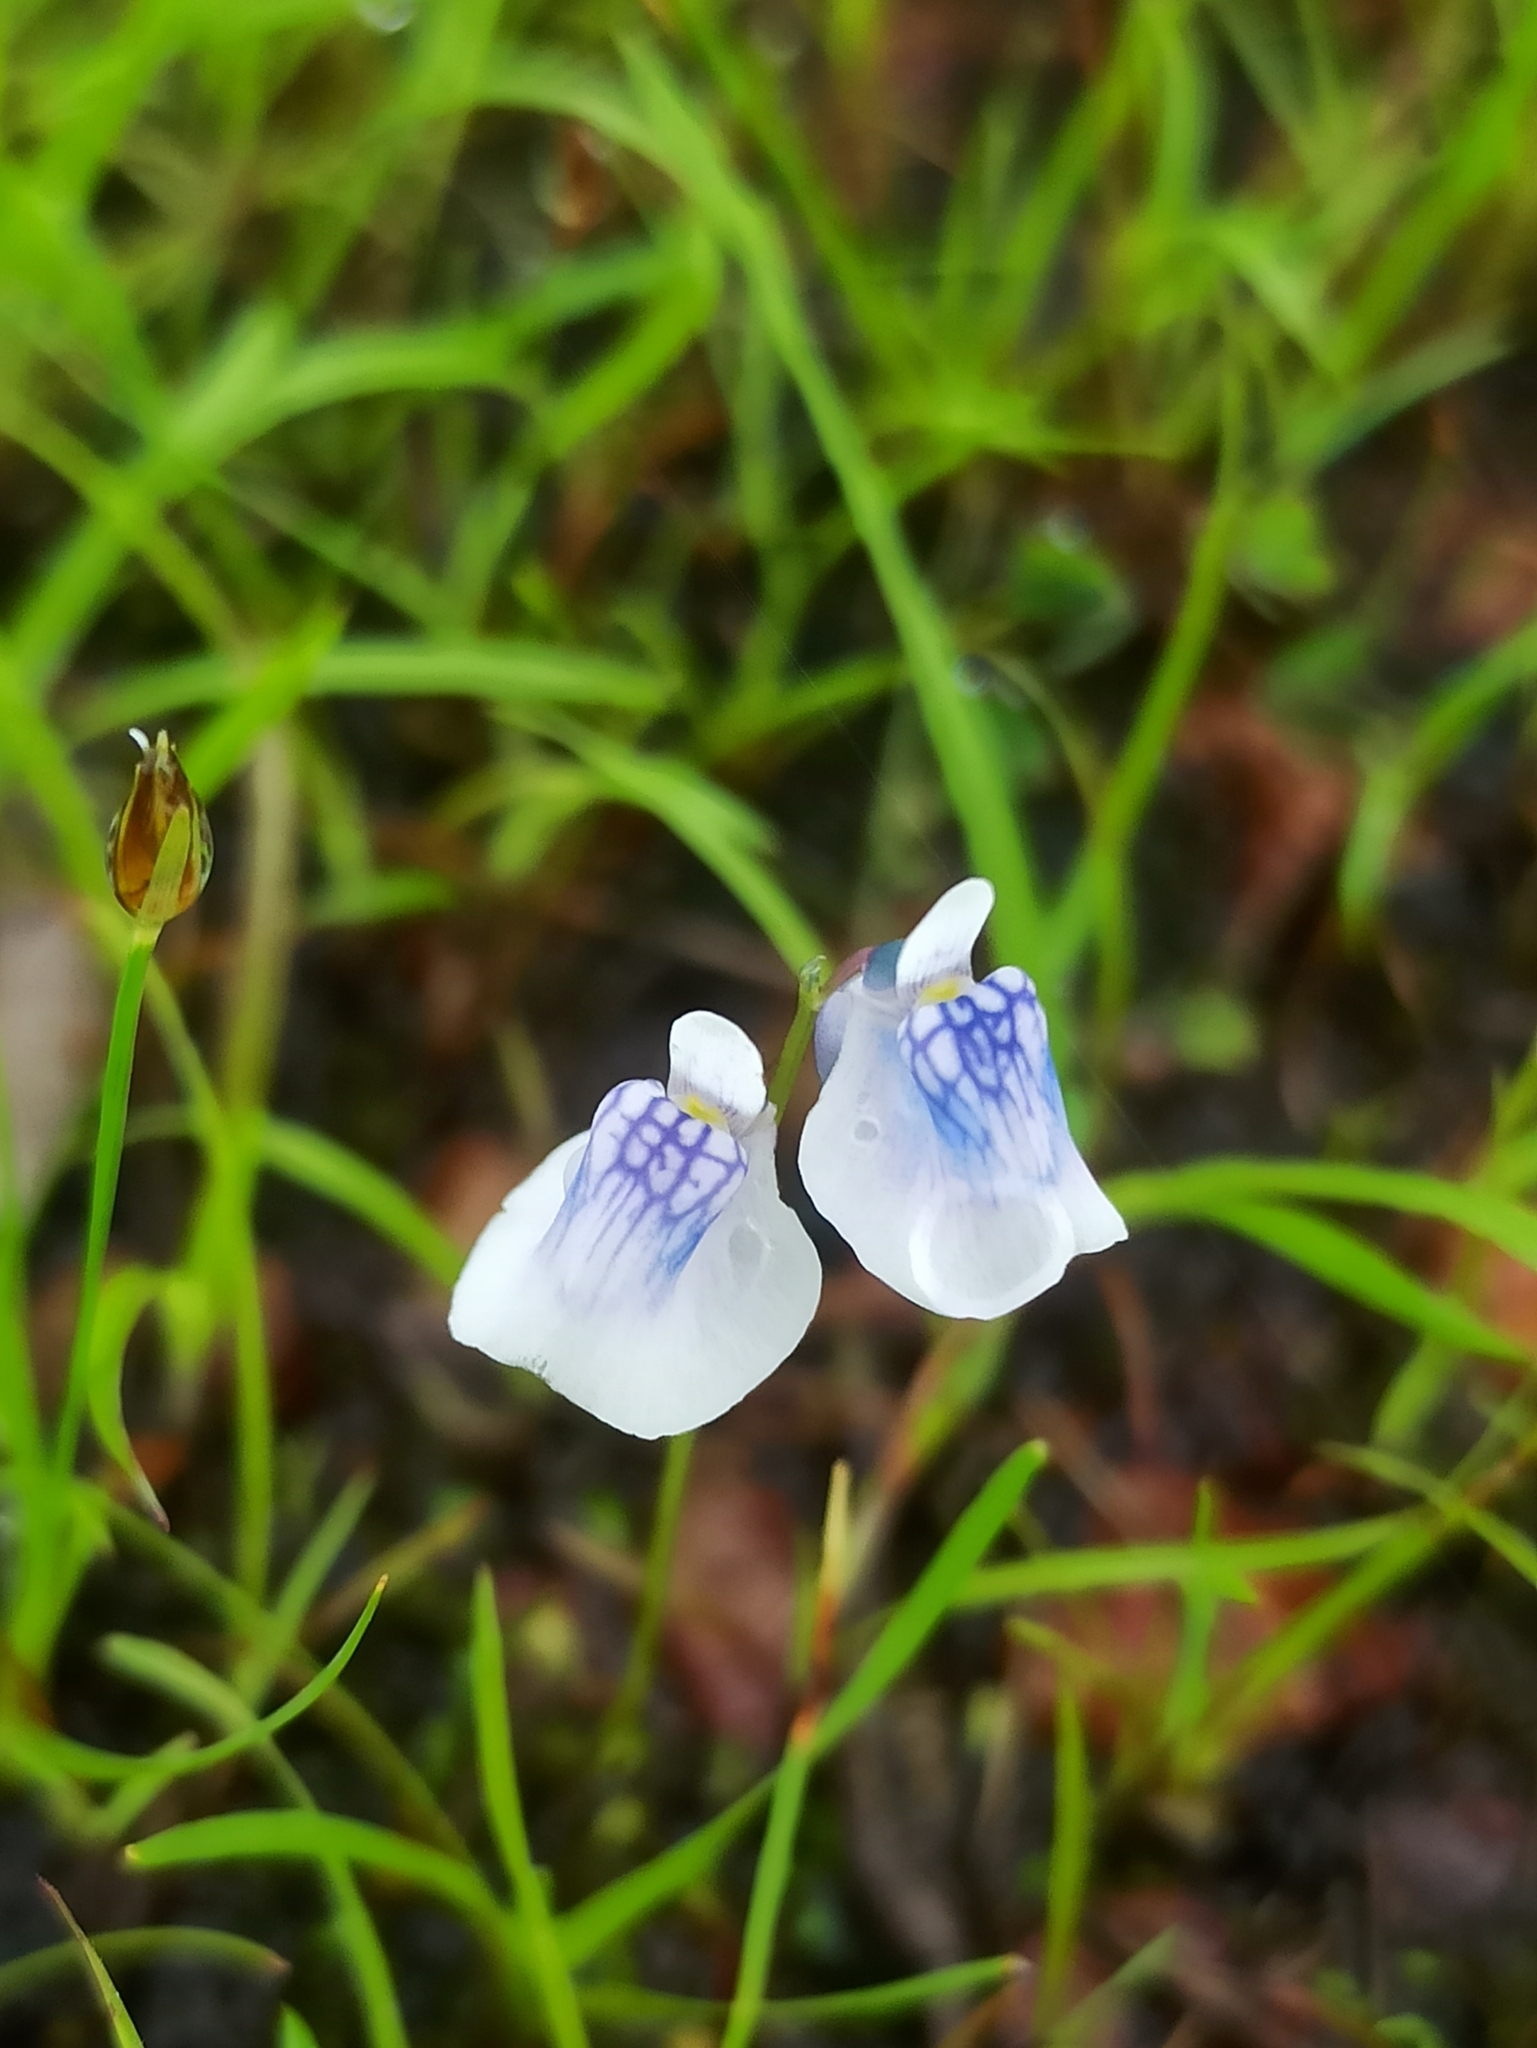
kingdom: Plantae
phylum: Tracheophyta
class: Magnoliopsida
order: Lamiales
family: Lentibulariaceae
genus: Utricularia
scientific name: Utricularia lazulina
